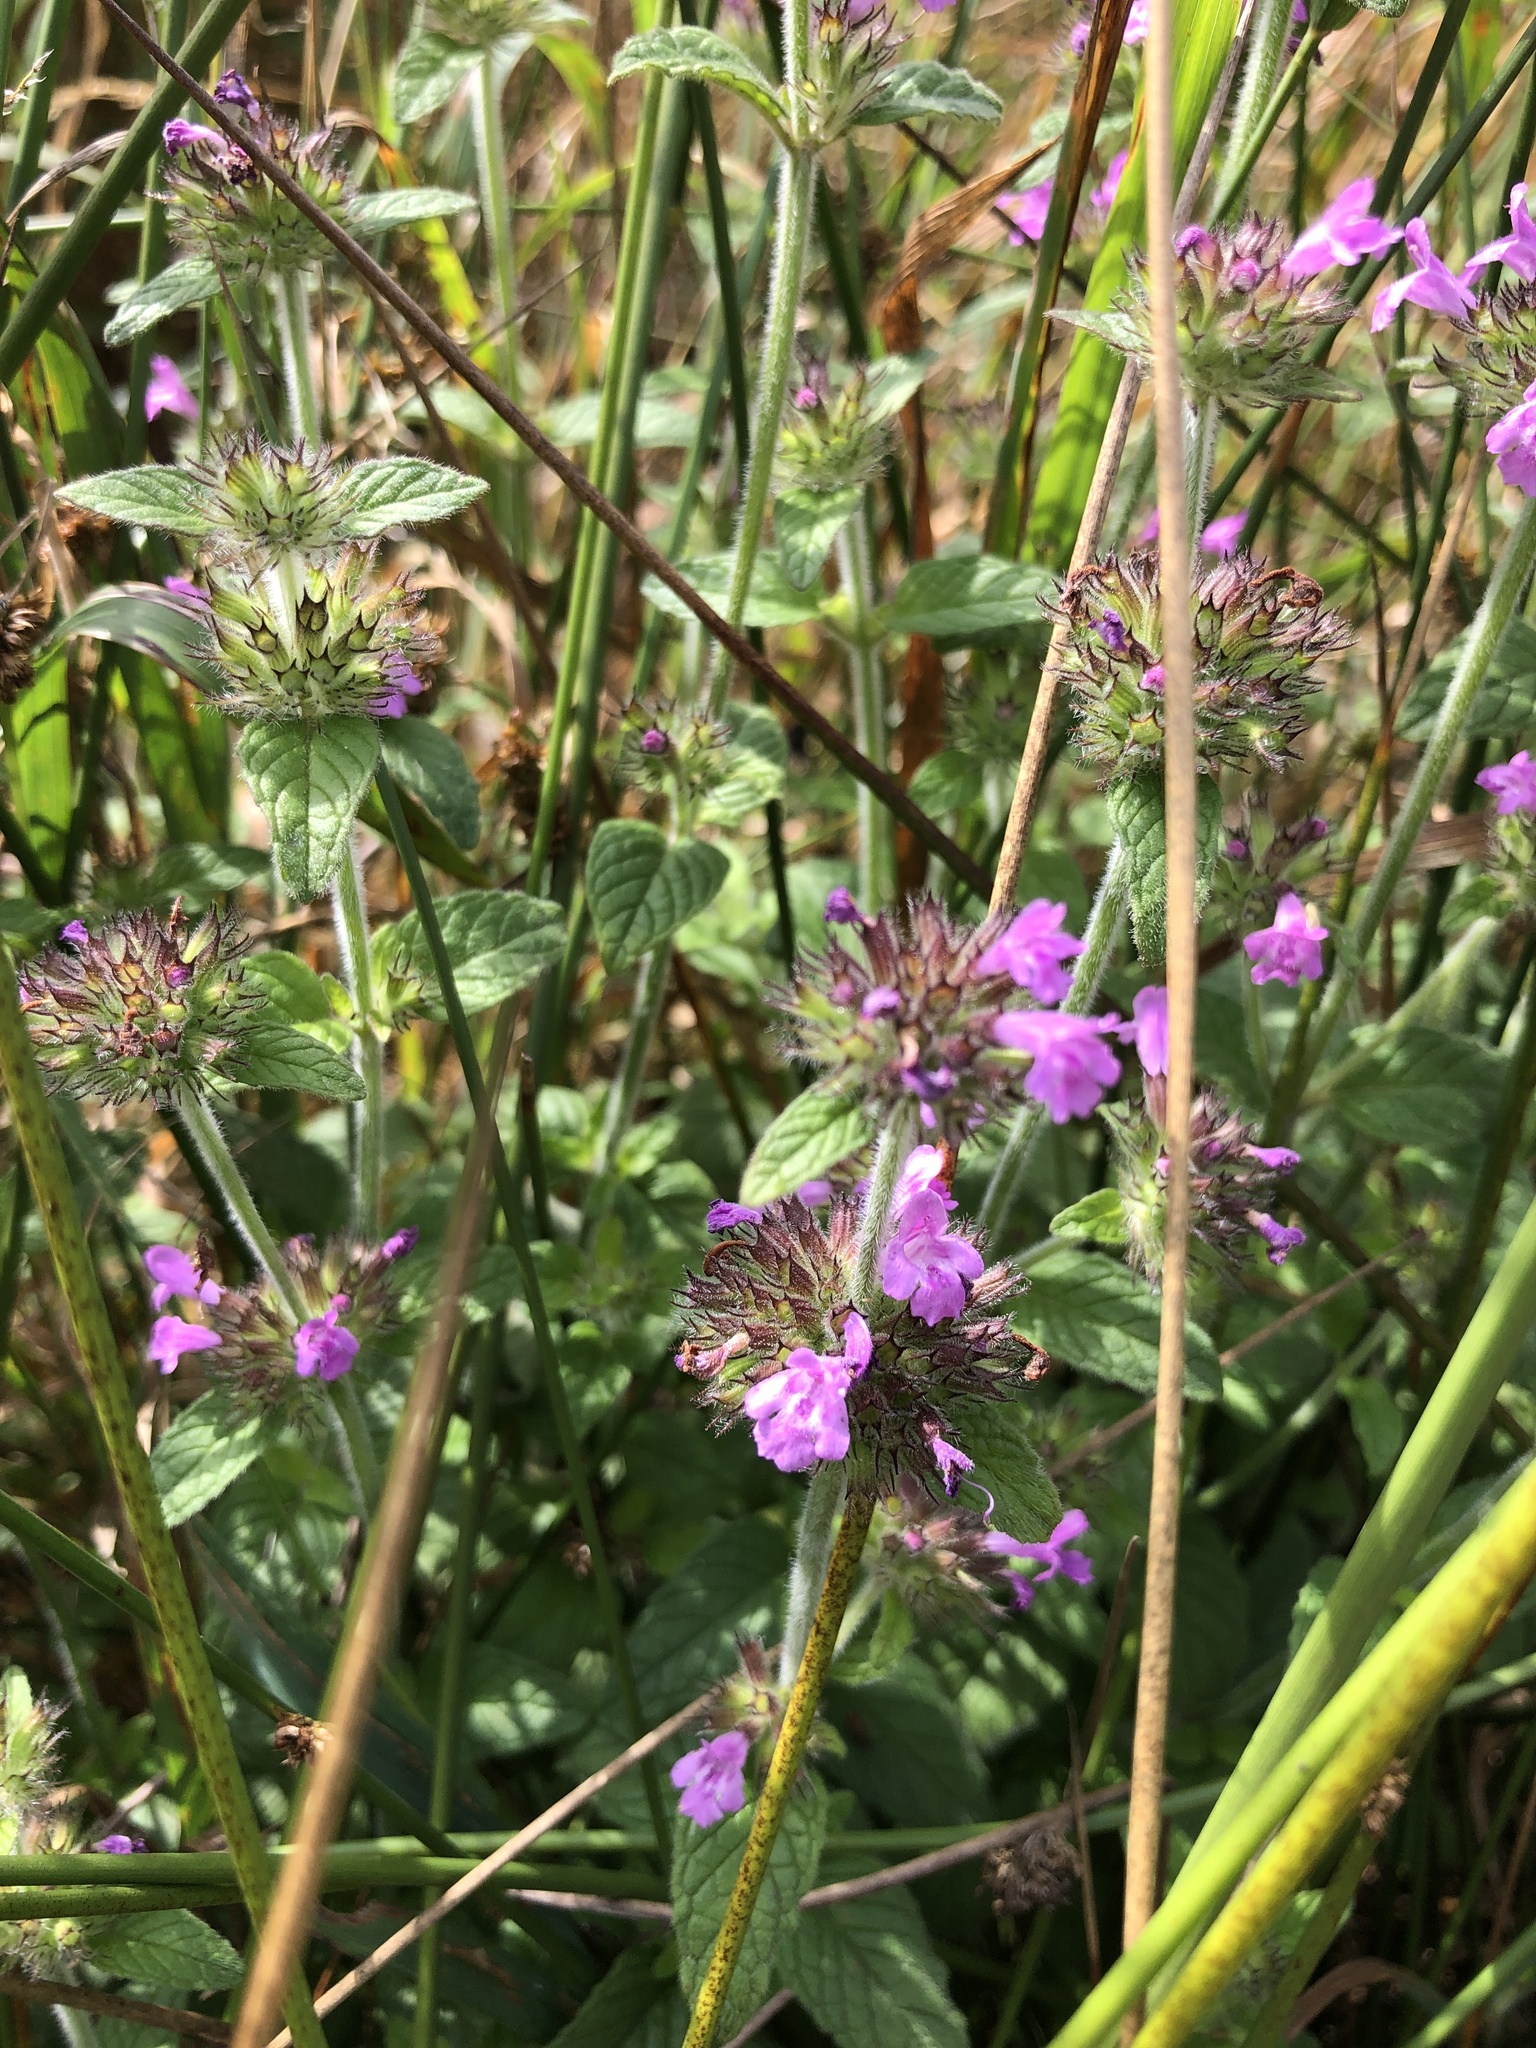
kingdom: Plantae
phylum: Tracheophyta
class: Magnoliopsida
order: Lamiales
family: Lamiaceae
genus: Clinopodium
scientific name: Clinopodium vulgare
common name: Wild basil
